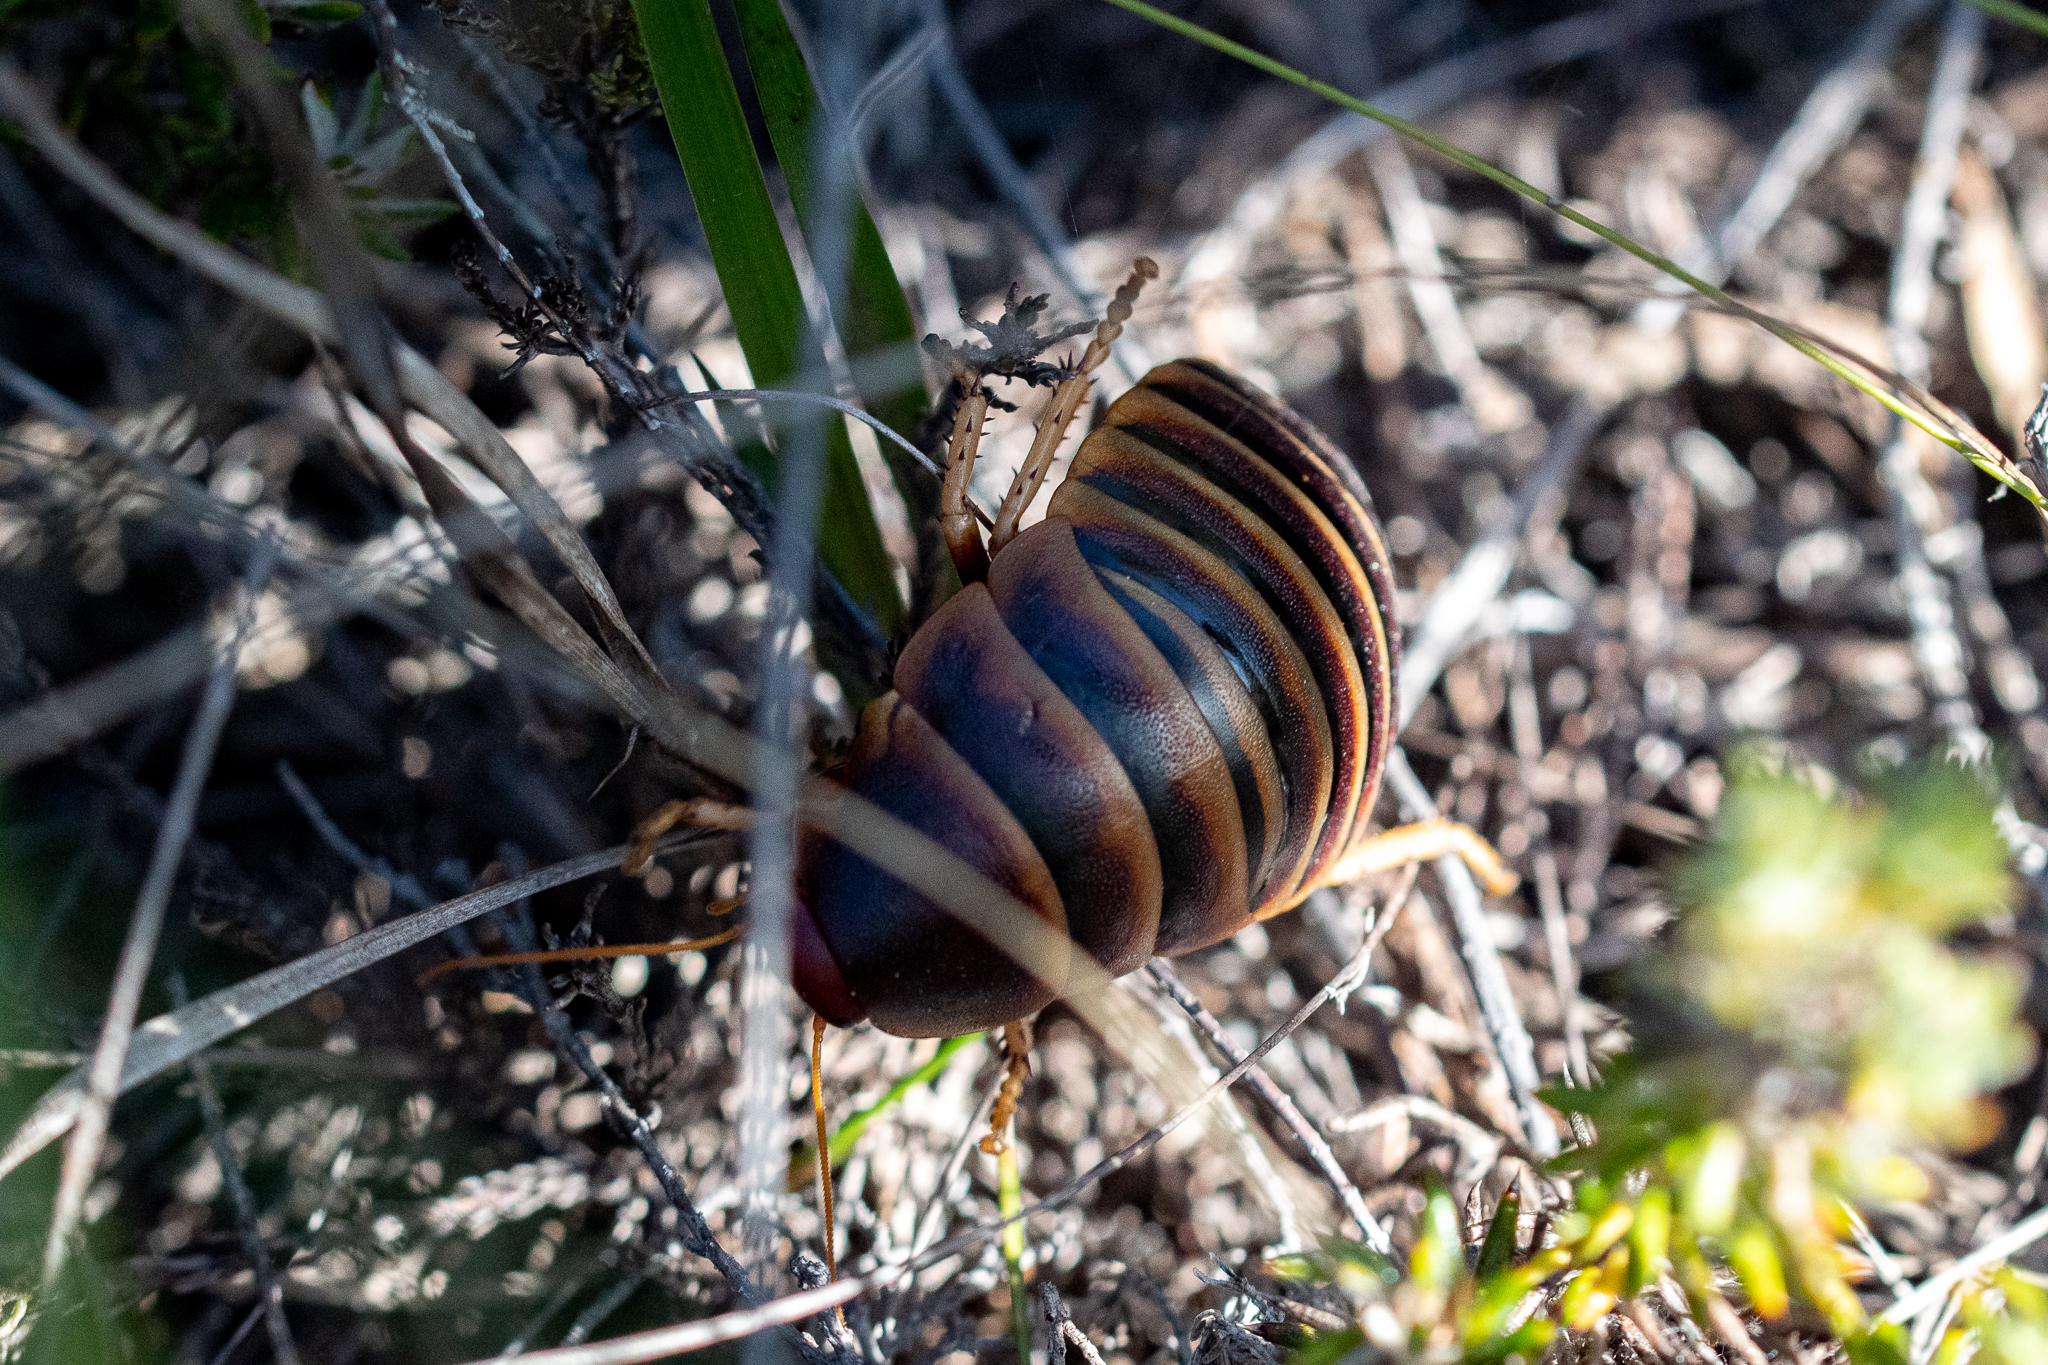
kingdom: Animalia
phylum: Arthropoda
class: Insecta
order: Blattodea
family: Blaberidae
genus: Aptera
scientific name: Aptera fusca
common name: Cape mountain cockroach
